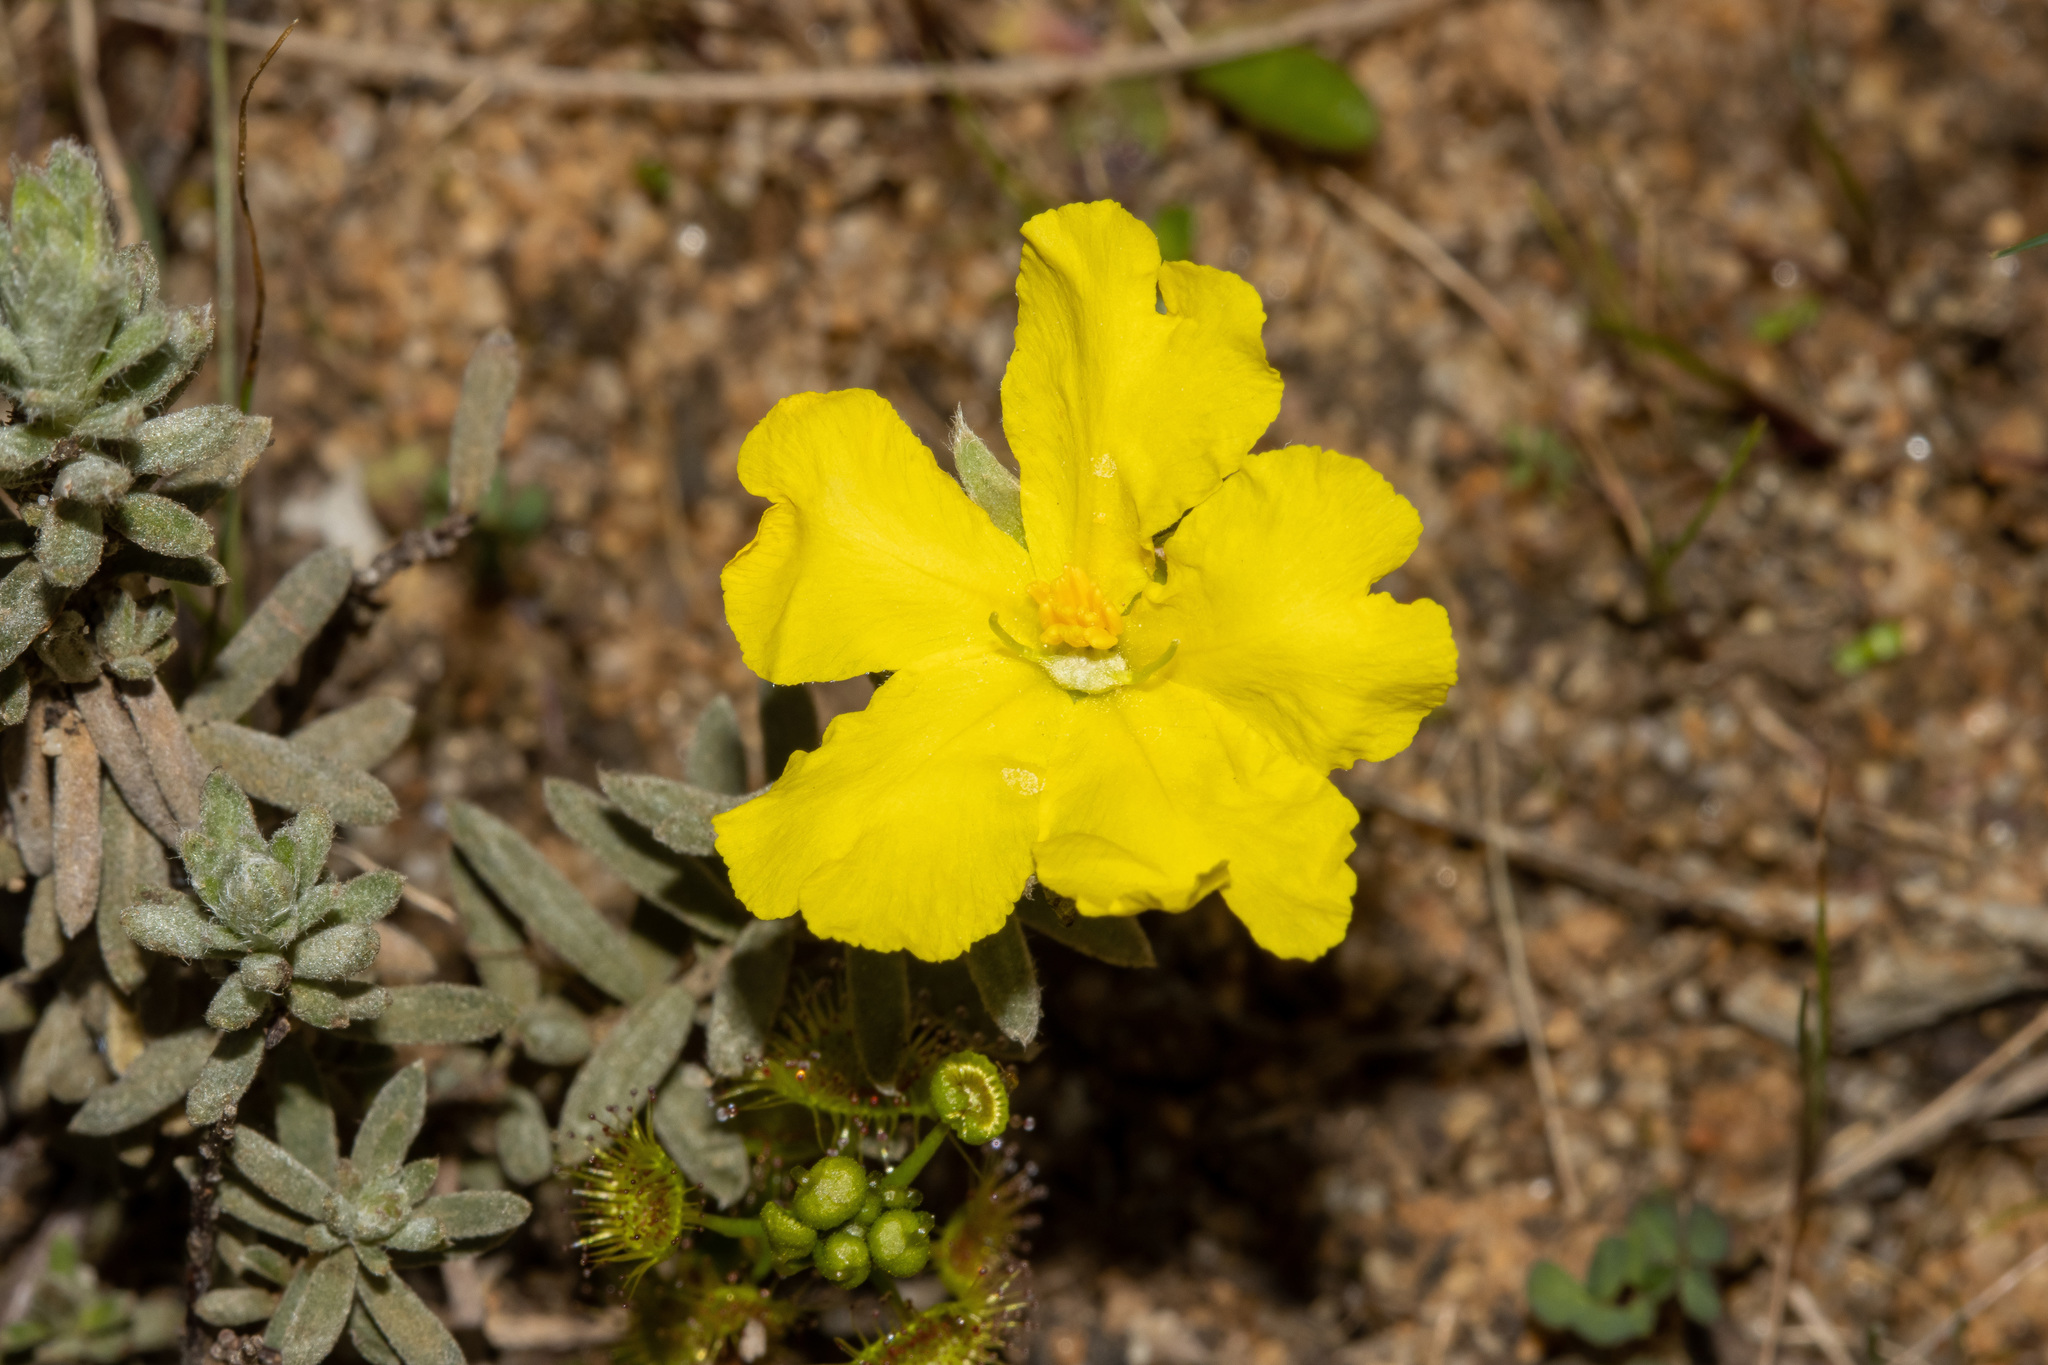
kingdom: Plantae
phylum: Tracheophyta
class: Magnoliopsida
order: Dilleniales
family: Dilleniaceae
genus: Hibbertia
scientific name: Hibbertia crinita
